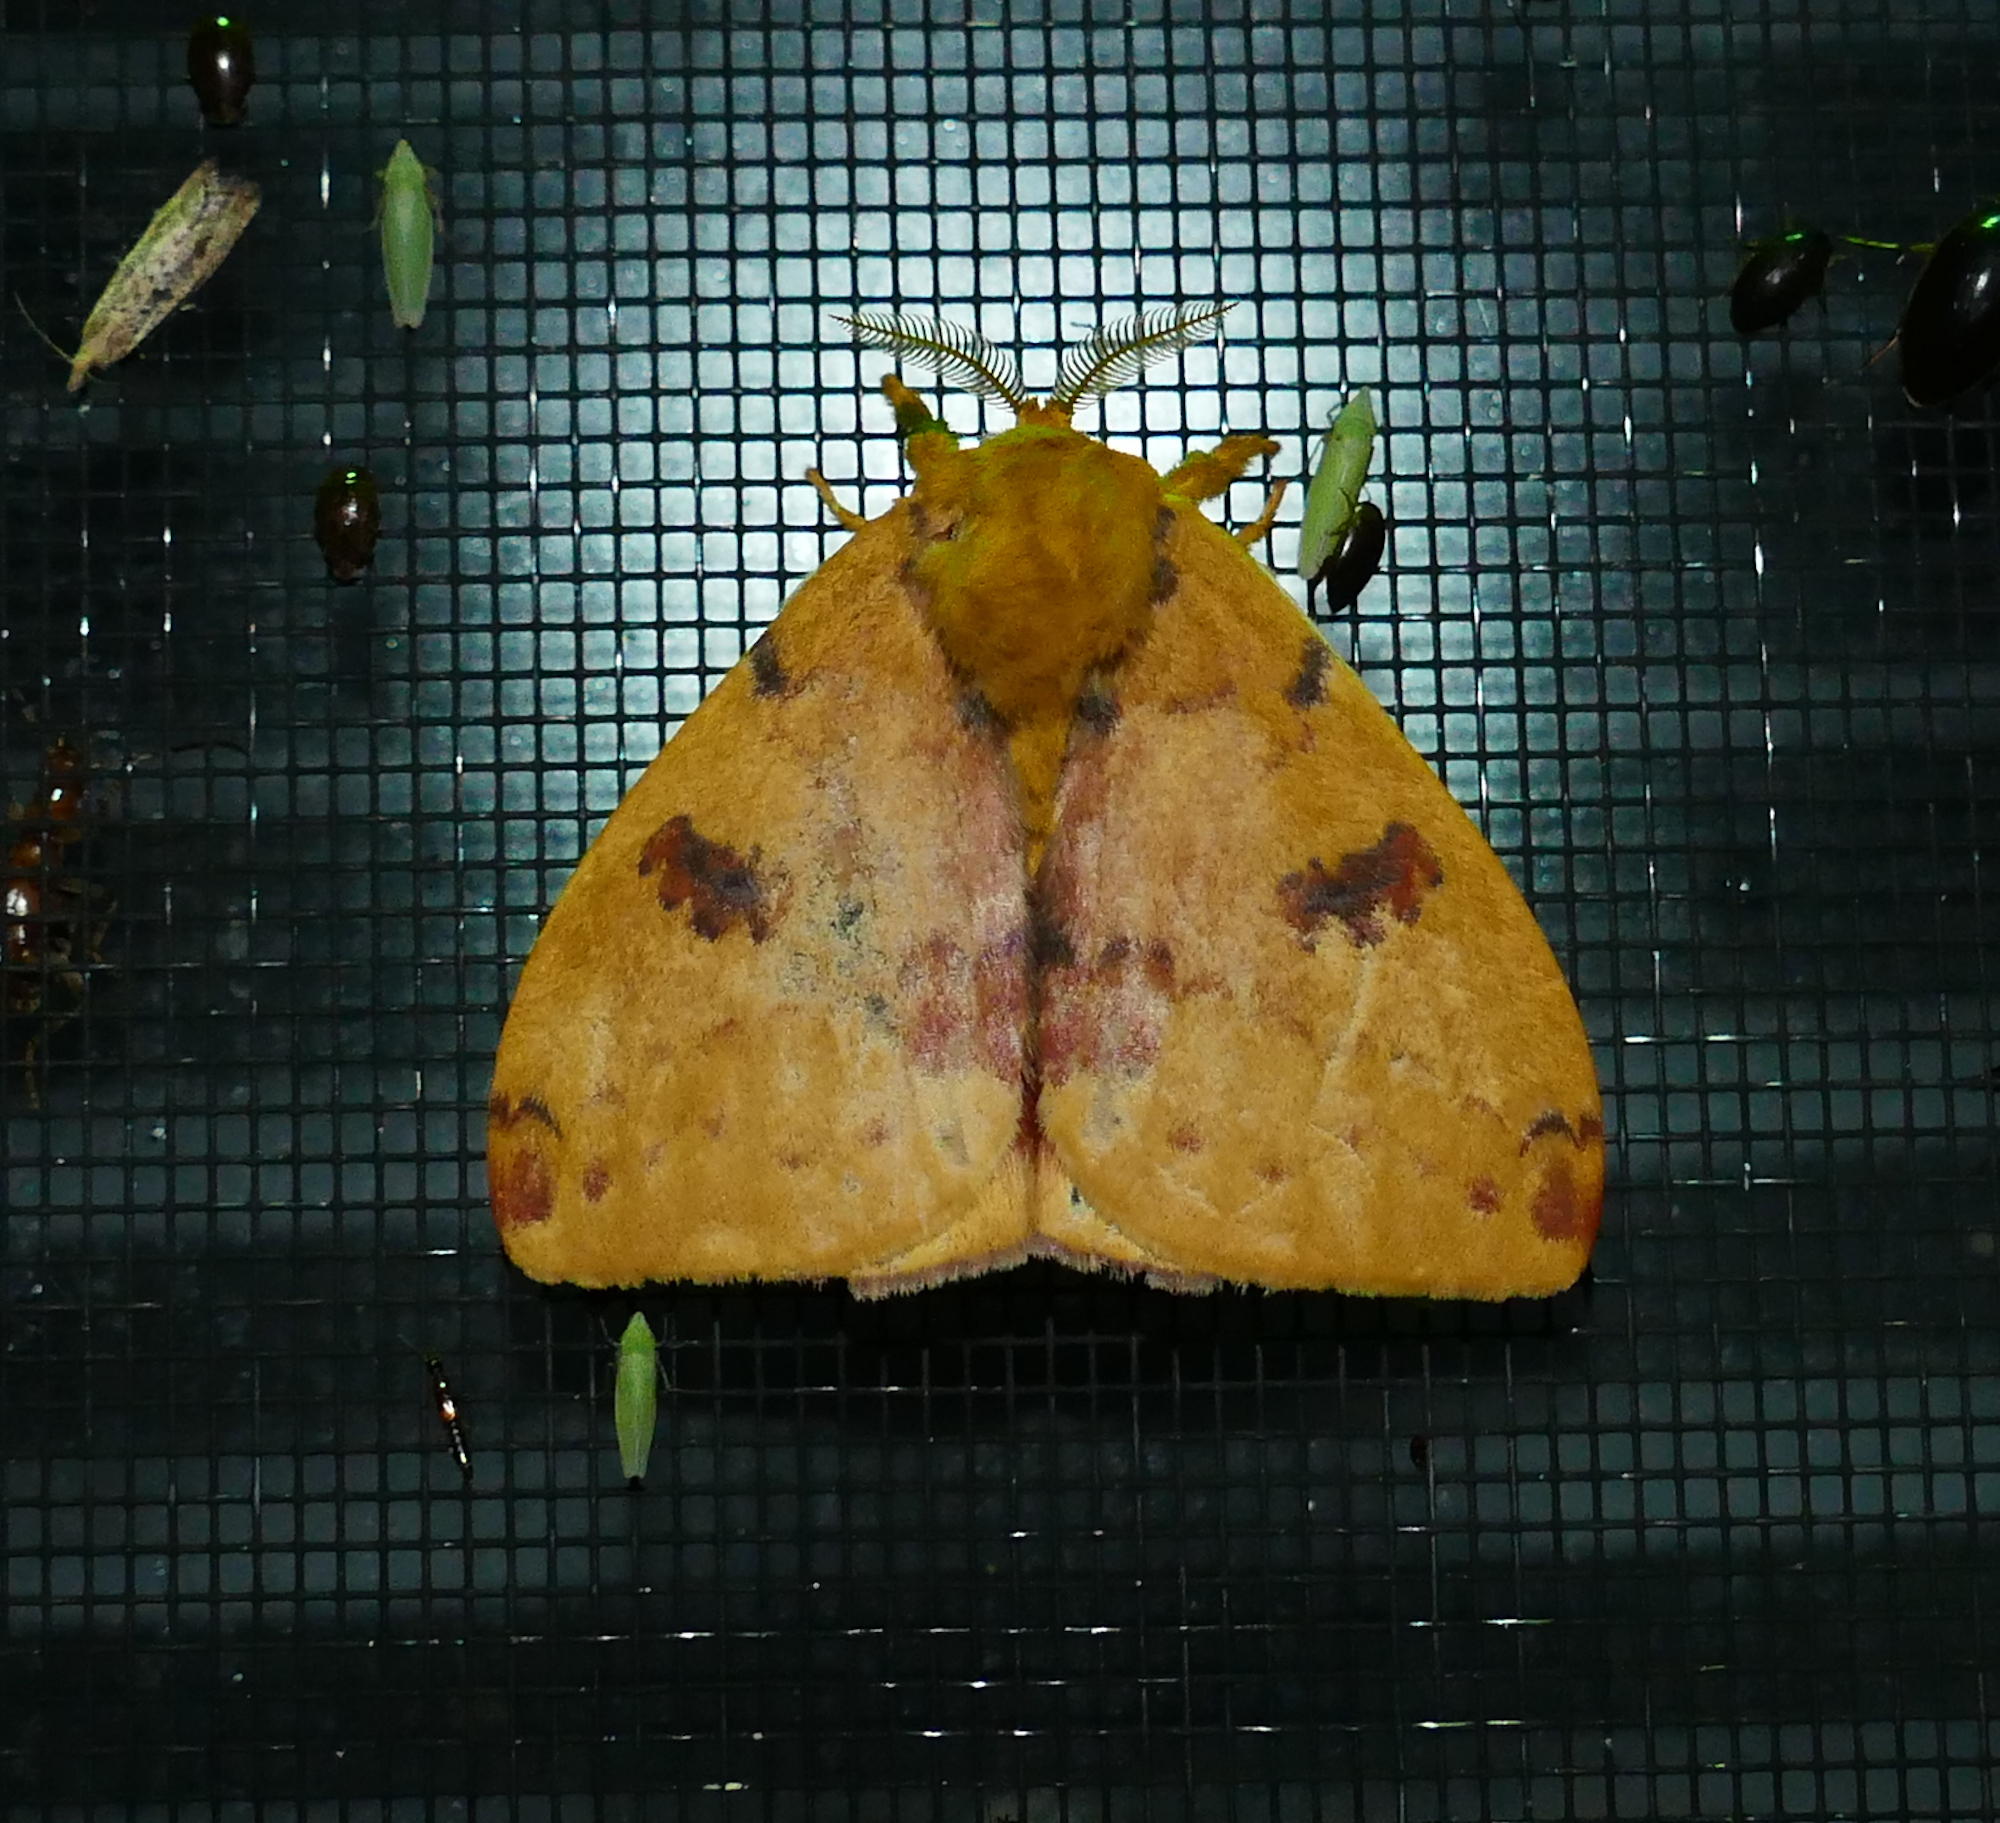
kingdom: Animalia
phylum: Arthropoda
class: Insecta
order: Lepidoptera
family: Saturniidae
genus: Automeris
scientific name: Automeris io
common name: Io moth
